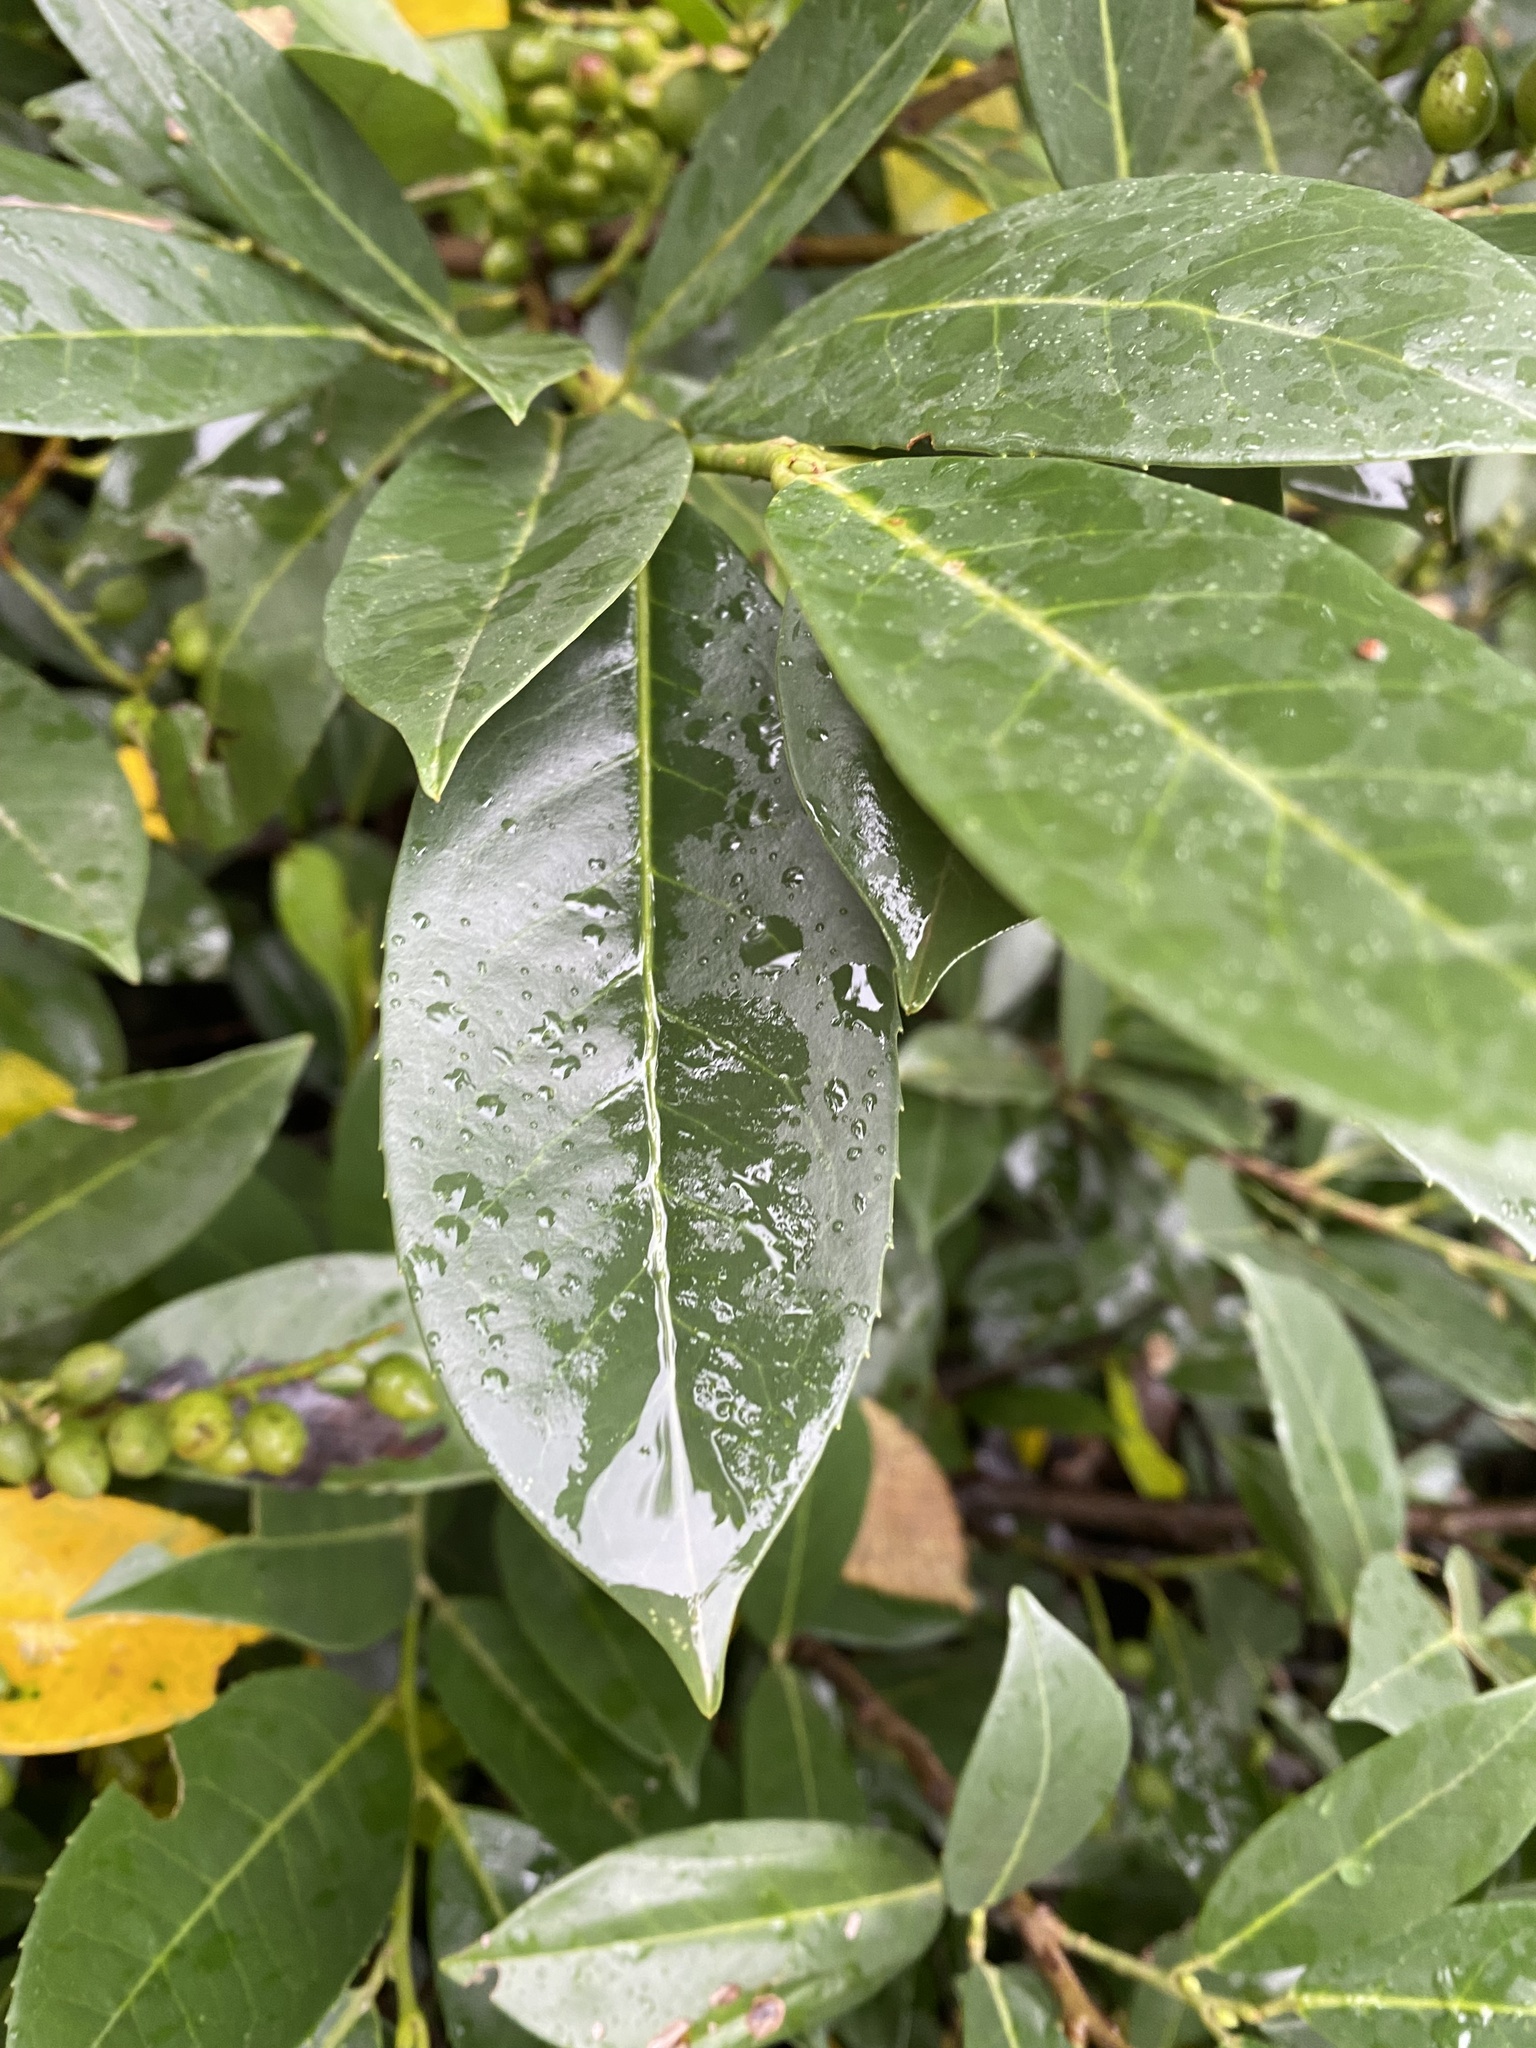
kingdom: Plantae
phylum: Tracheophyta
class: Magnoliopsida
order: Rosales
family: Rosaceae
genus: Prunus
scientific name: Prunus laurocerasus
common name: Cherry laurel
